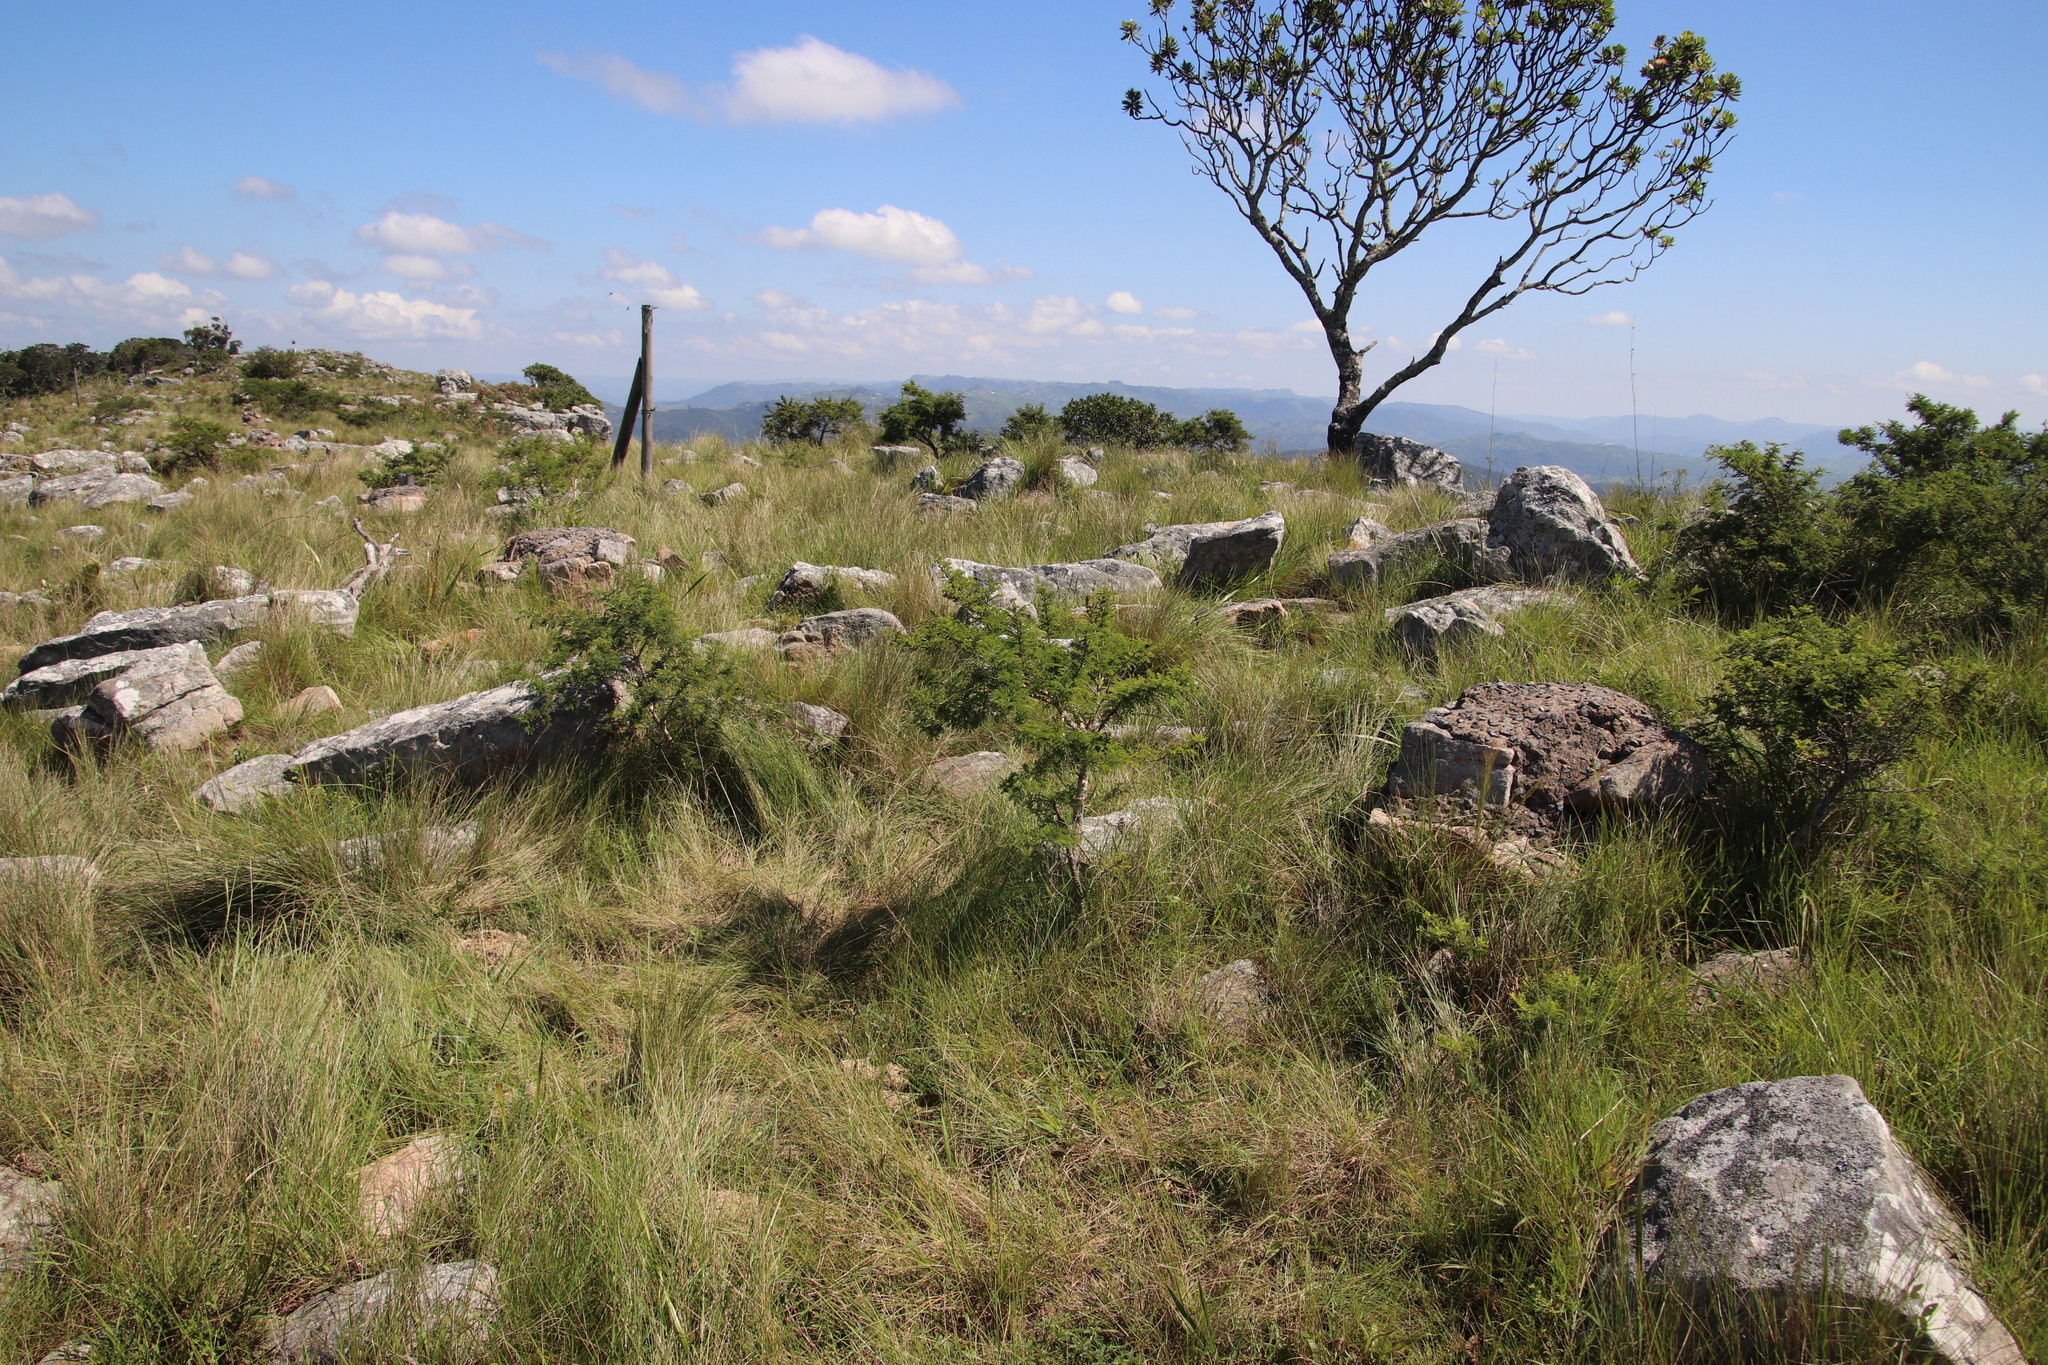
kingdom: Plantae
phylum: Tracheophyta
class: Magnoliopsida
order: Fabales
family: Fabaceae
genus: Vachellia
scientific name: Vachellia karroo
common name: Sweet thorn
